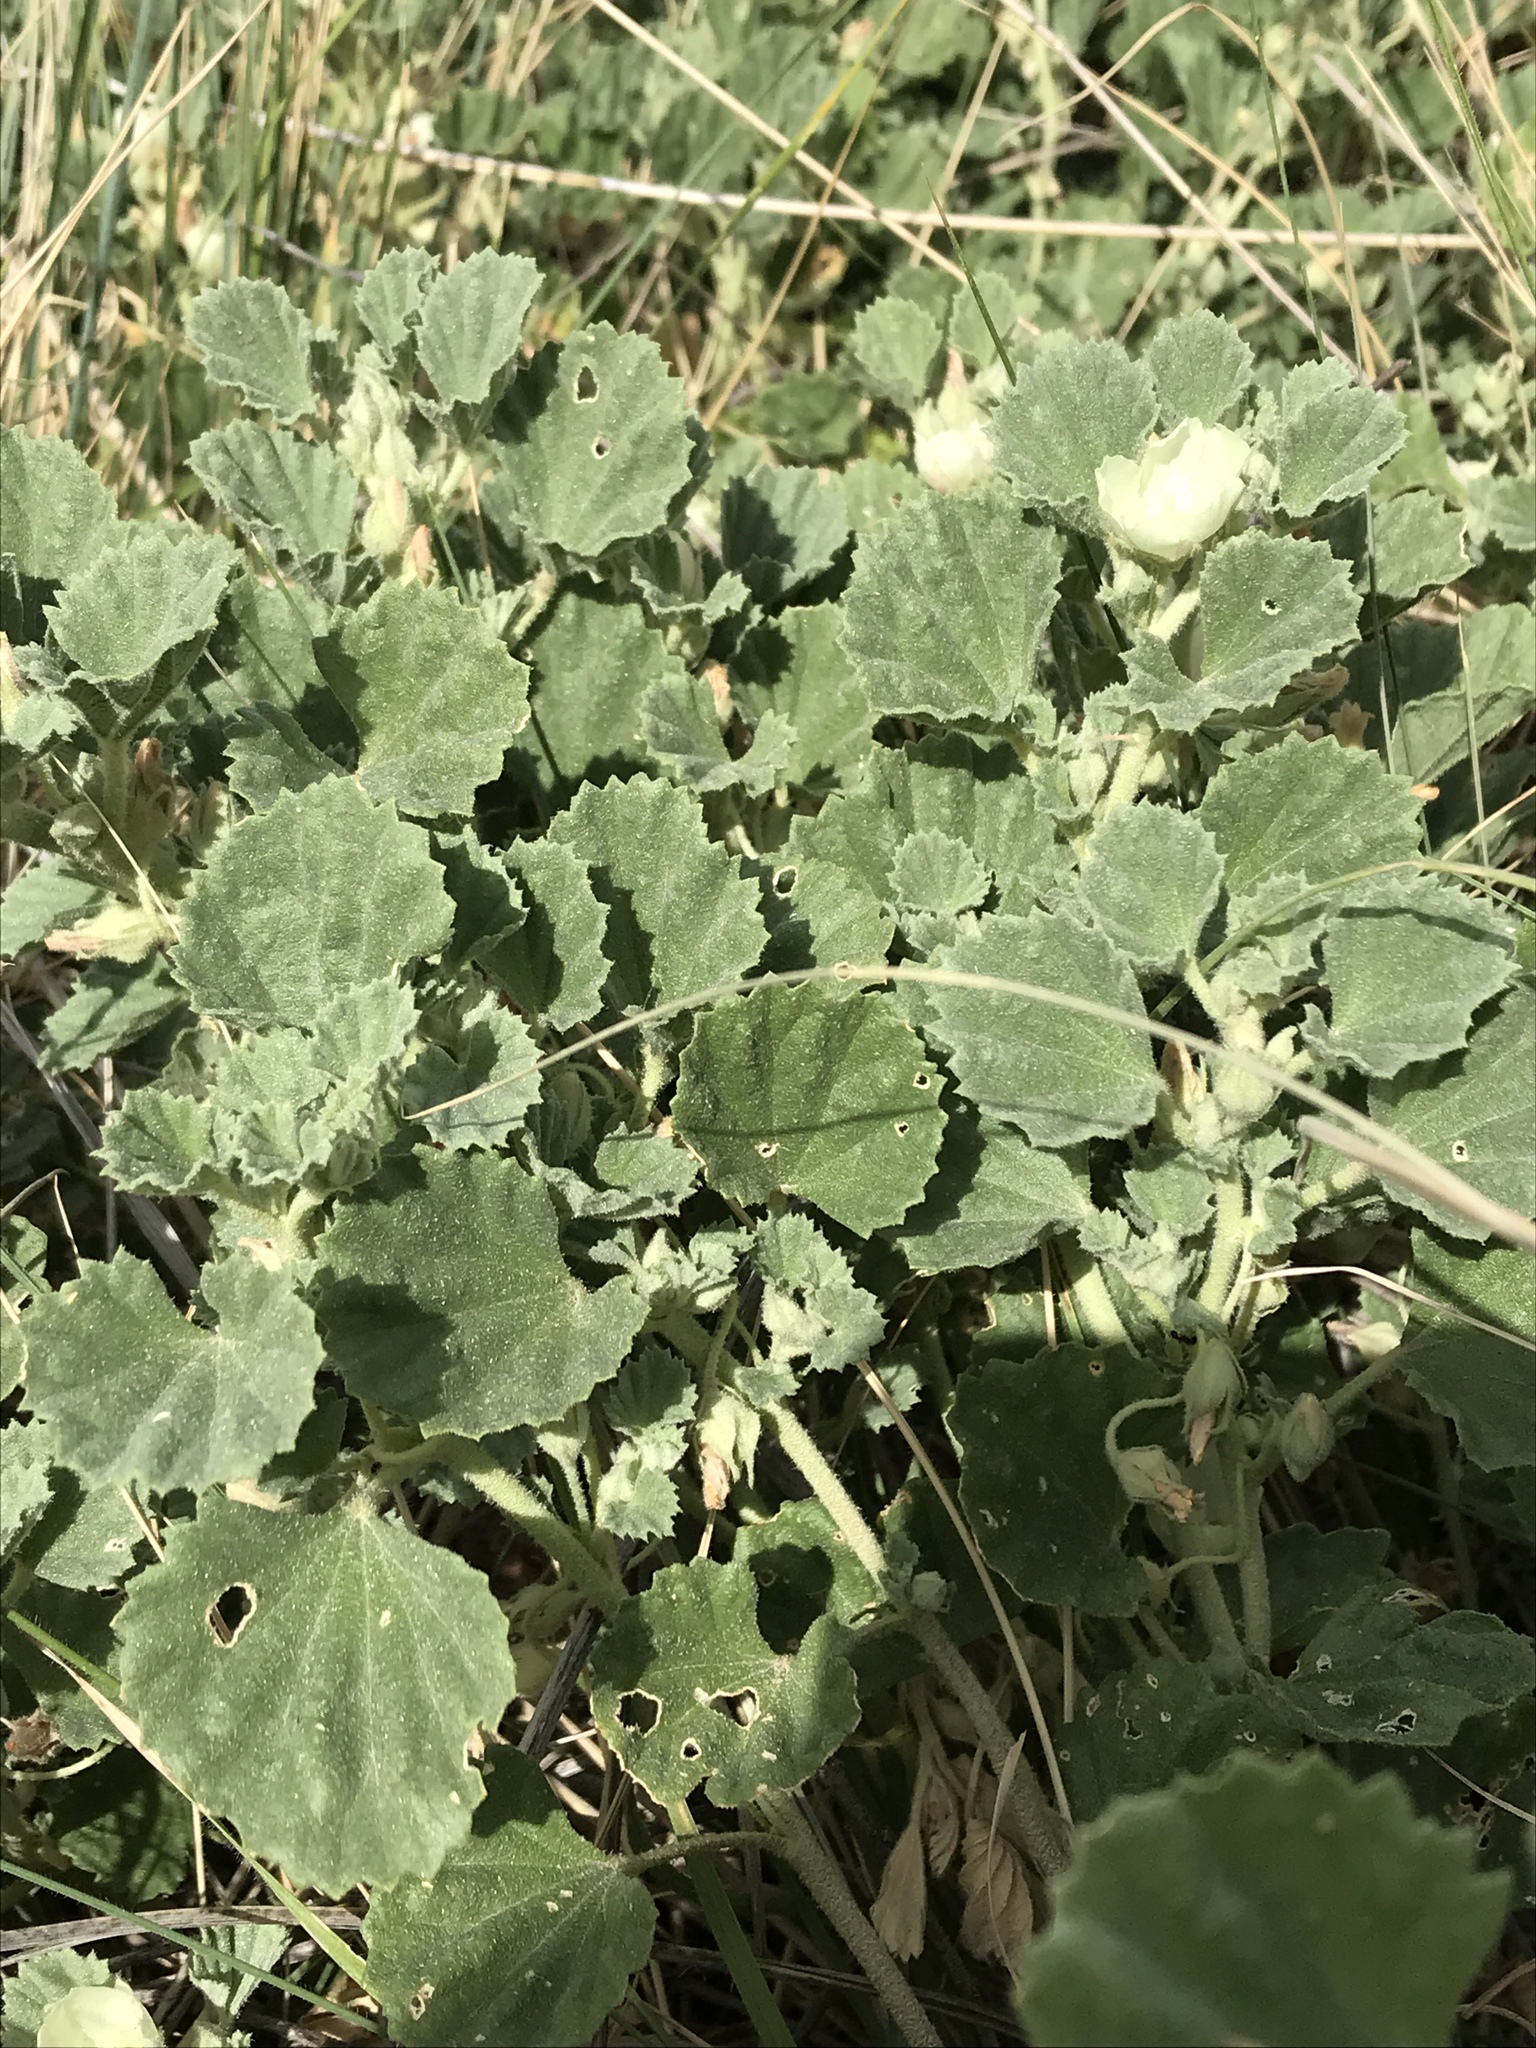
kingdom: Plantae
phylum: Tracheophyta
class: Magnoliopsida
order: Malvales
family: Malvaceae
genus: Malvella
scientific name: Malvella leprosa
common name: Alkali-mallow
